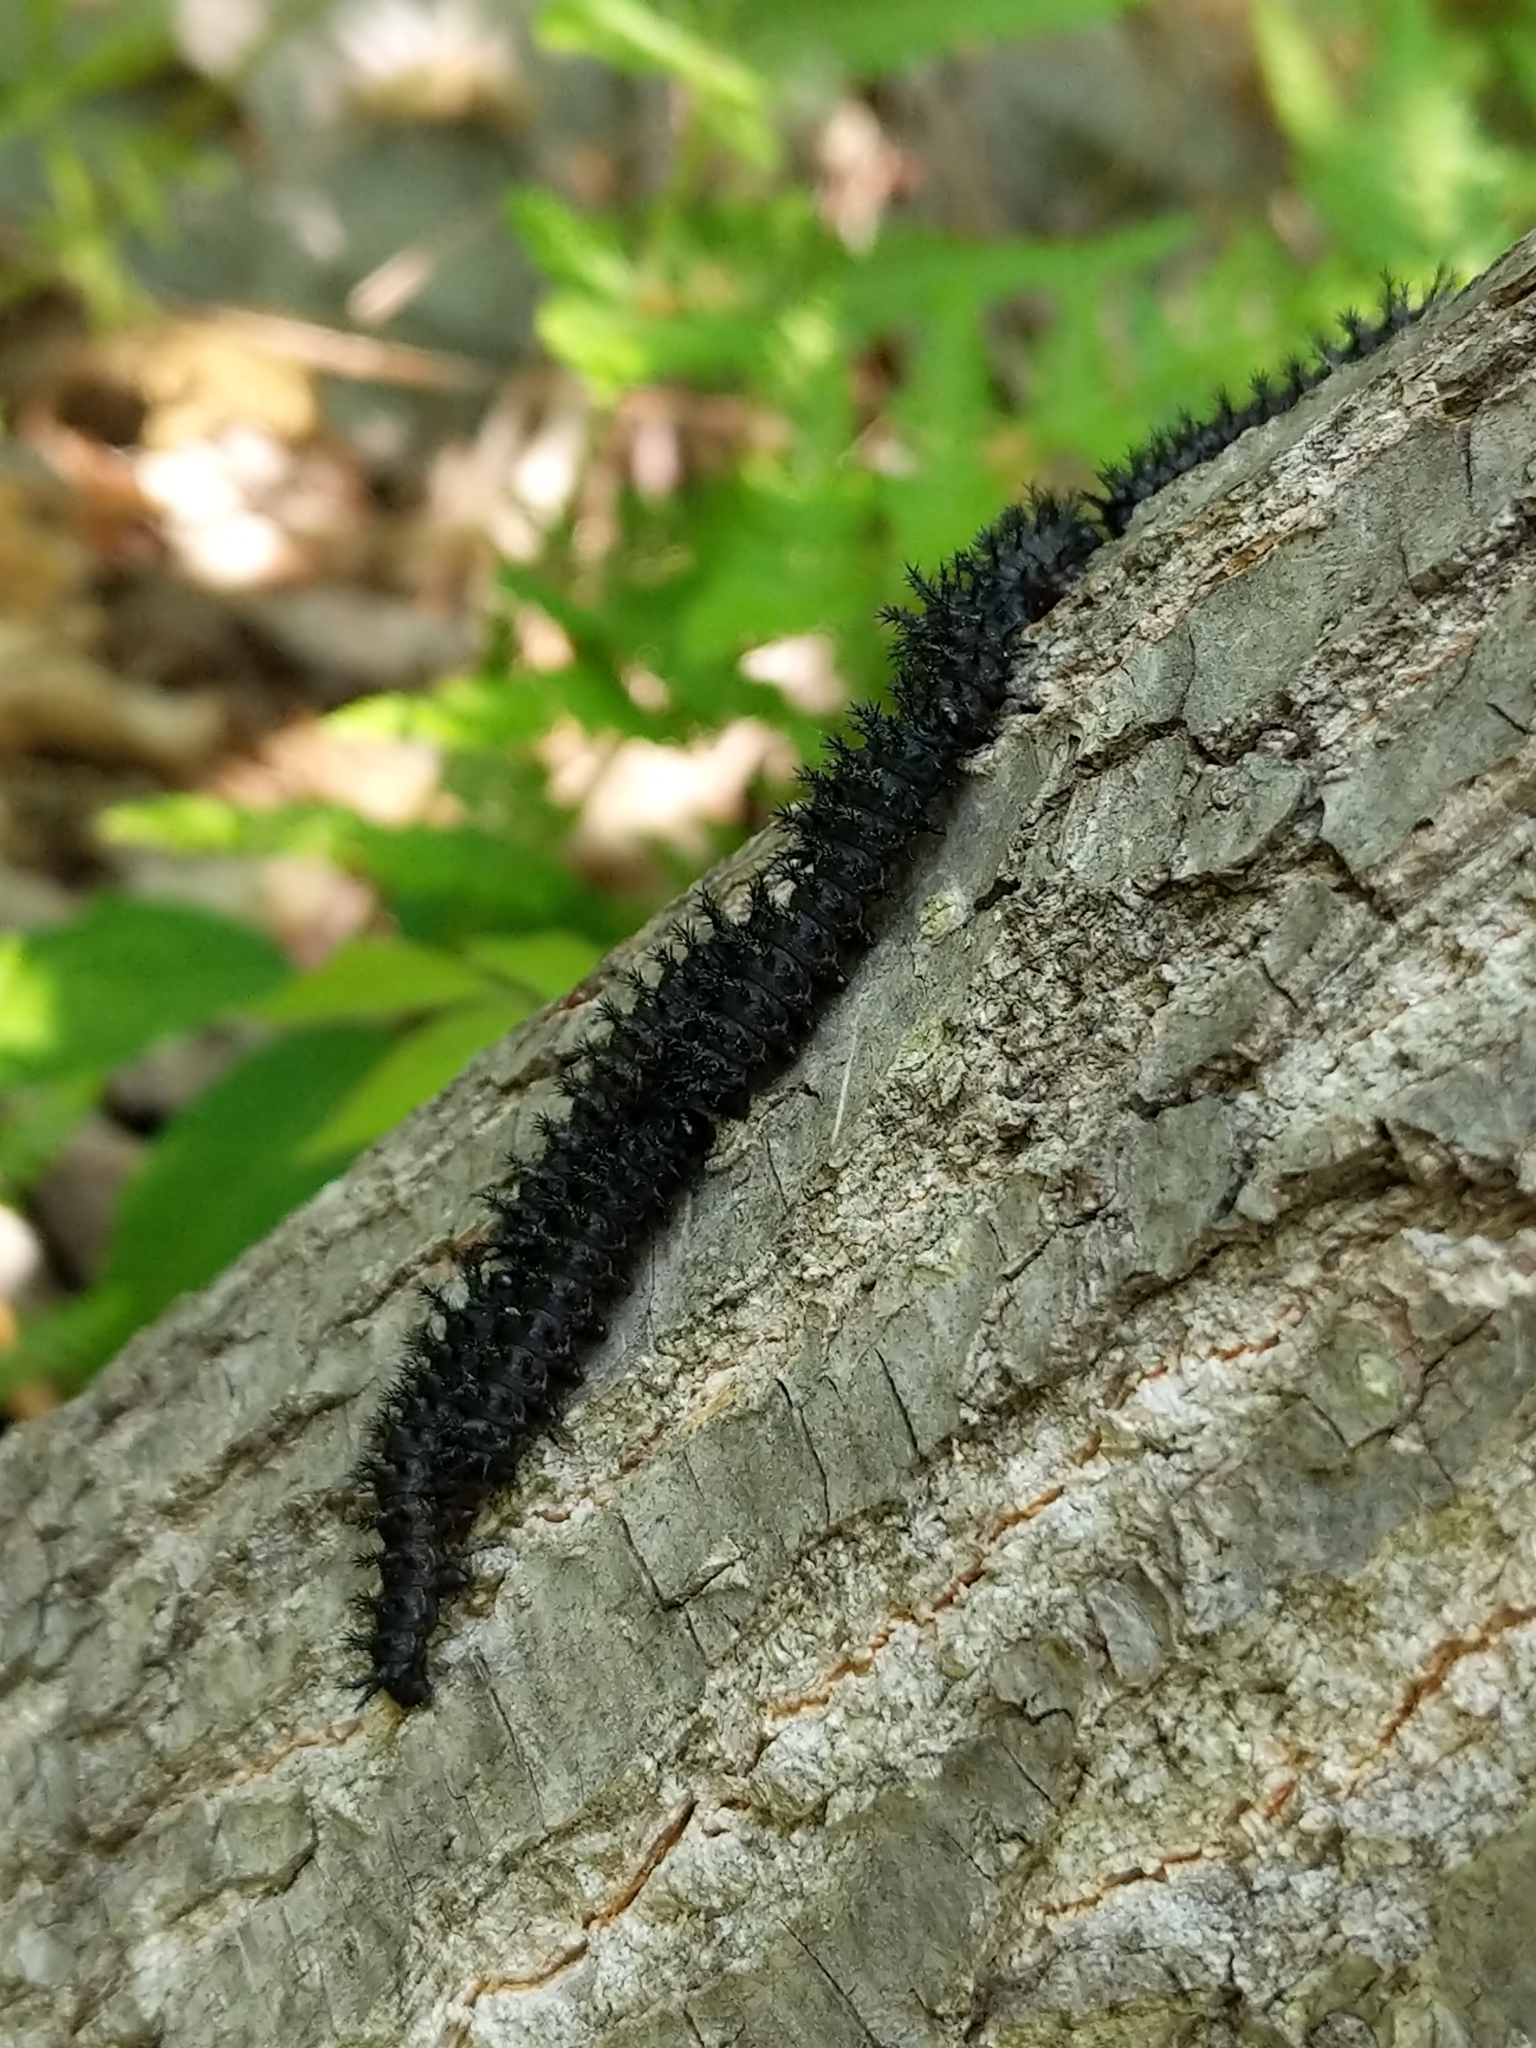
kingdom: Animalia
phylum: Arthropoda
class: Insecta
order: Lepidoptera
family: Saturniidae
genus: Hemileuca
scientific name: Hemileuca maia
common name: Eastern buckmoth
